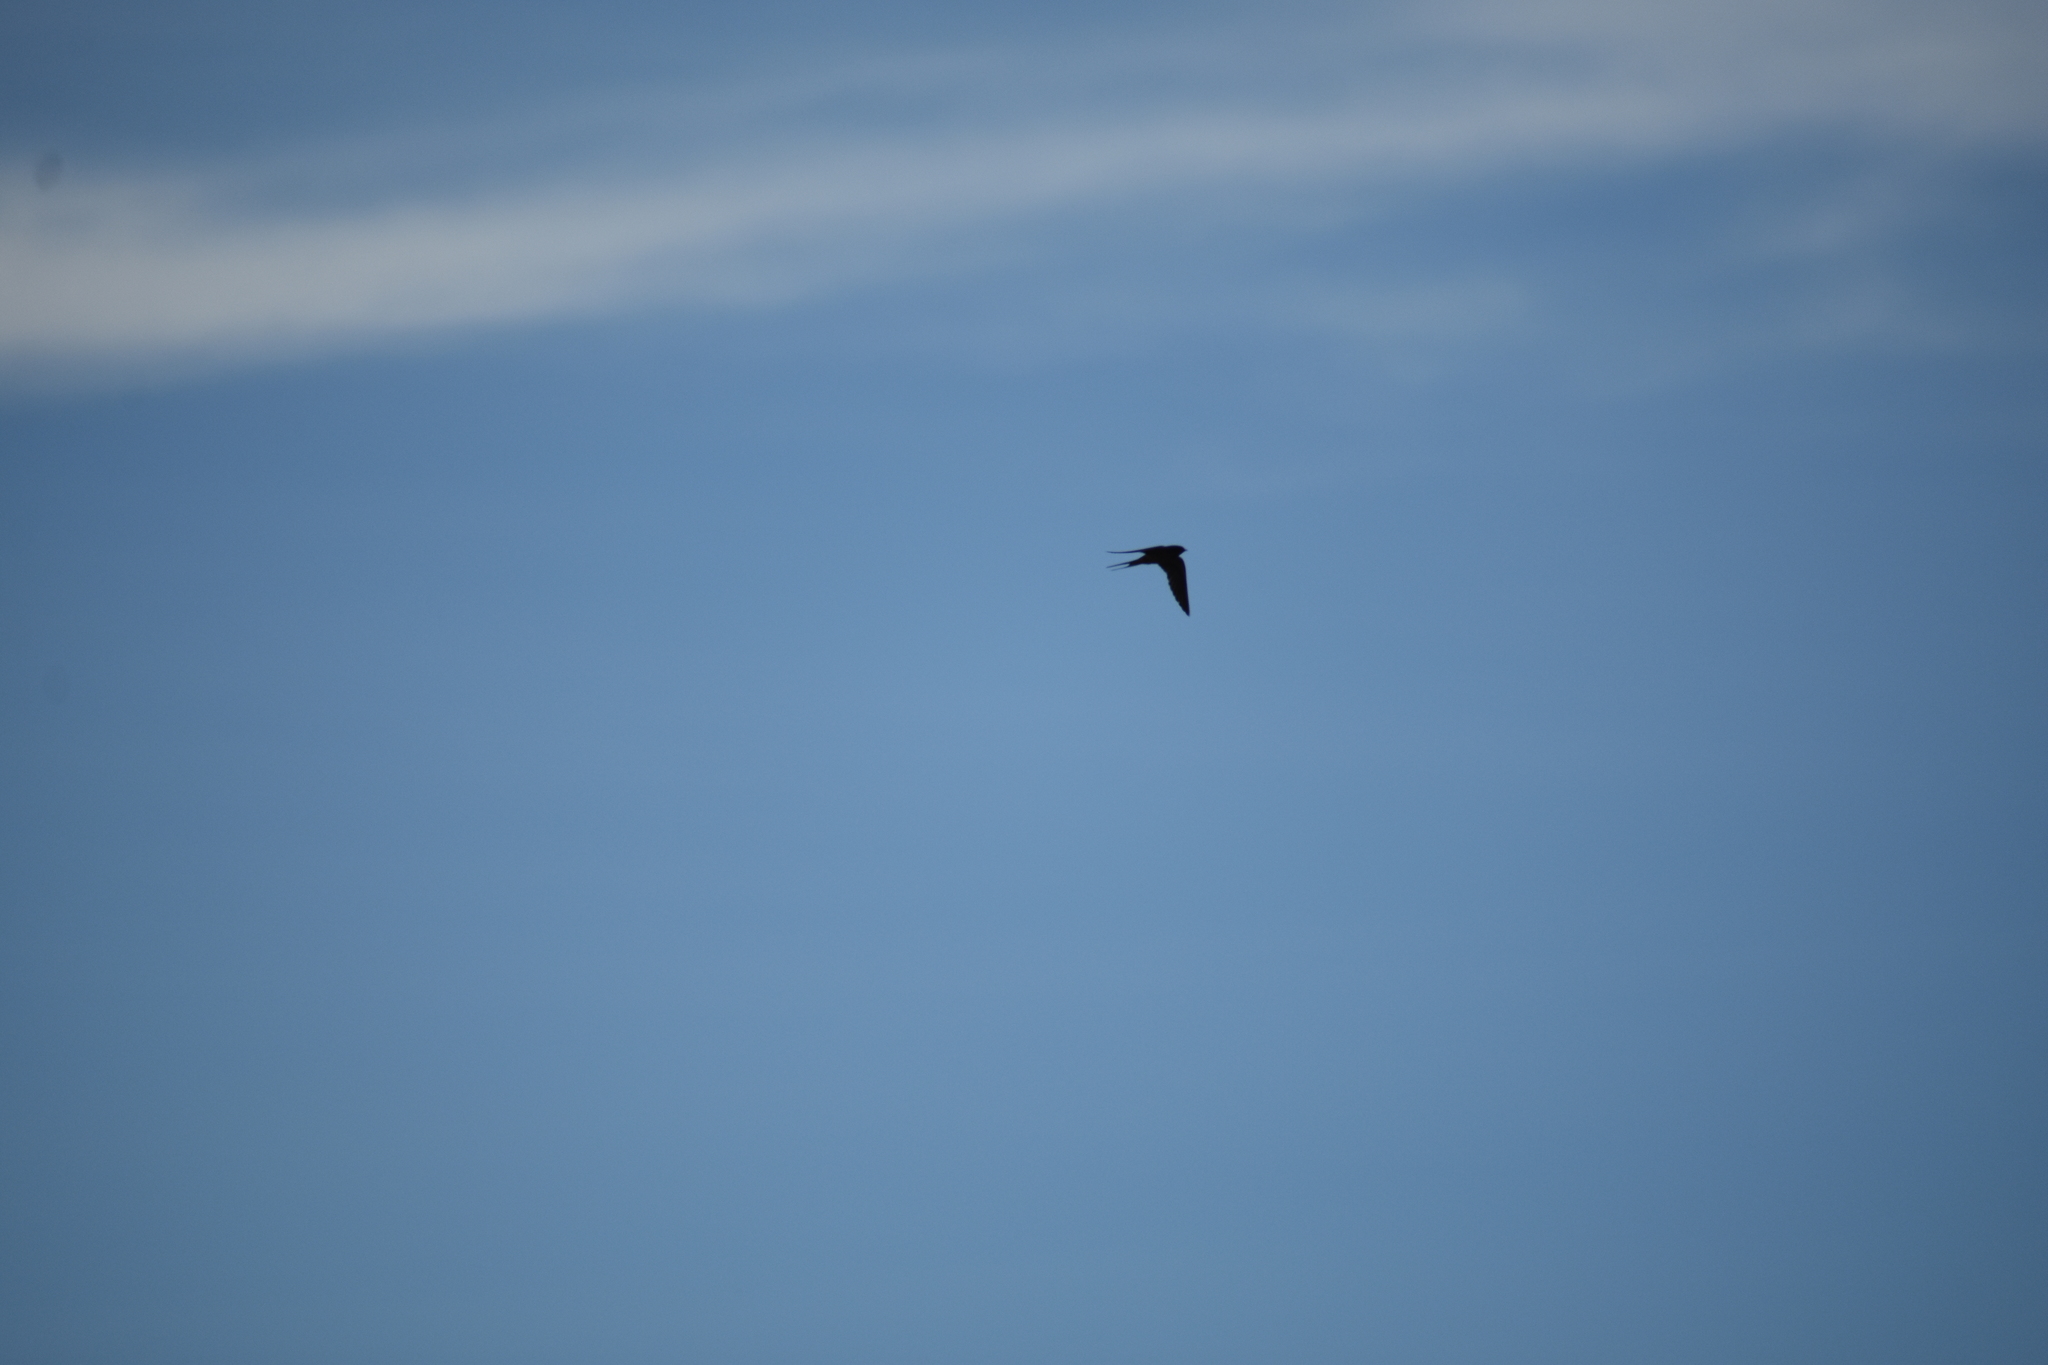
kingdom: Animalia
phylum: Chordata
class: Aves
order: Passeriformes
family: Hirundinidae
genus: Hirundo
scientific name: Hirundo rustica
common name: Barn swallow
